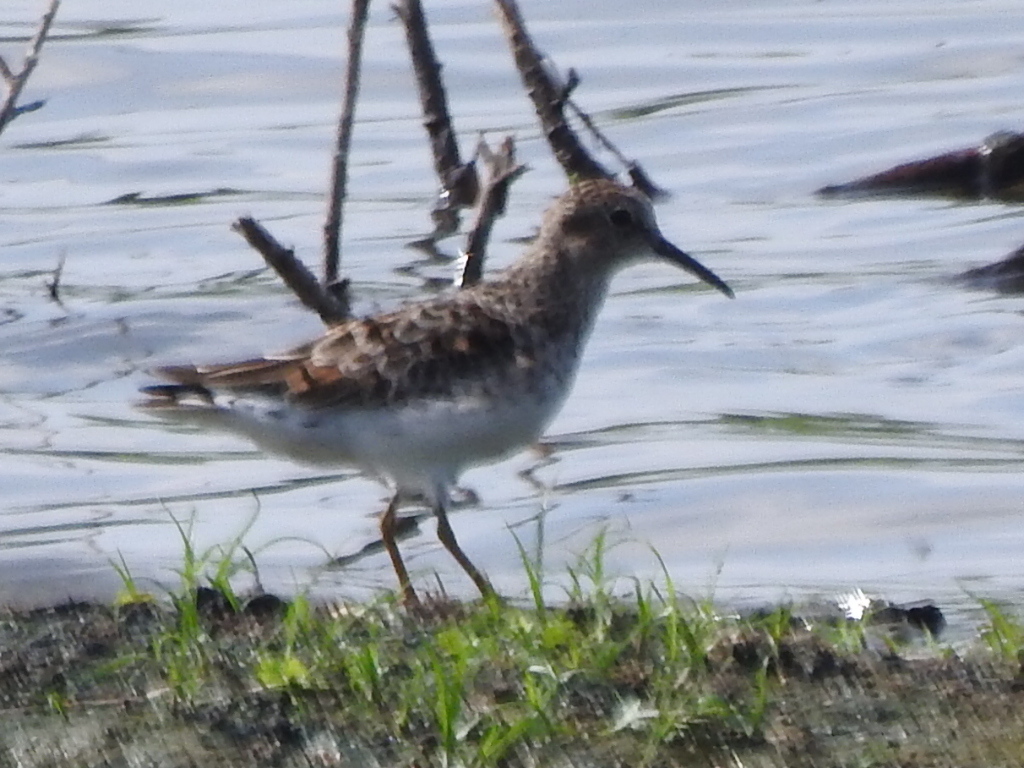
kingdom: Animalia
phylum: Chordata
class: Aves
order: Charadriiformes
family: Scolopacidae
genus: Calidris
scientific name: Calidris minutilla
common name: Least sandpiper
